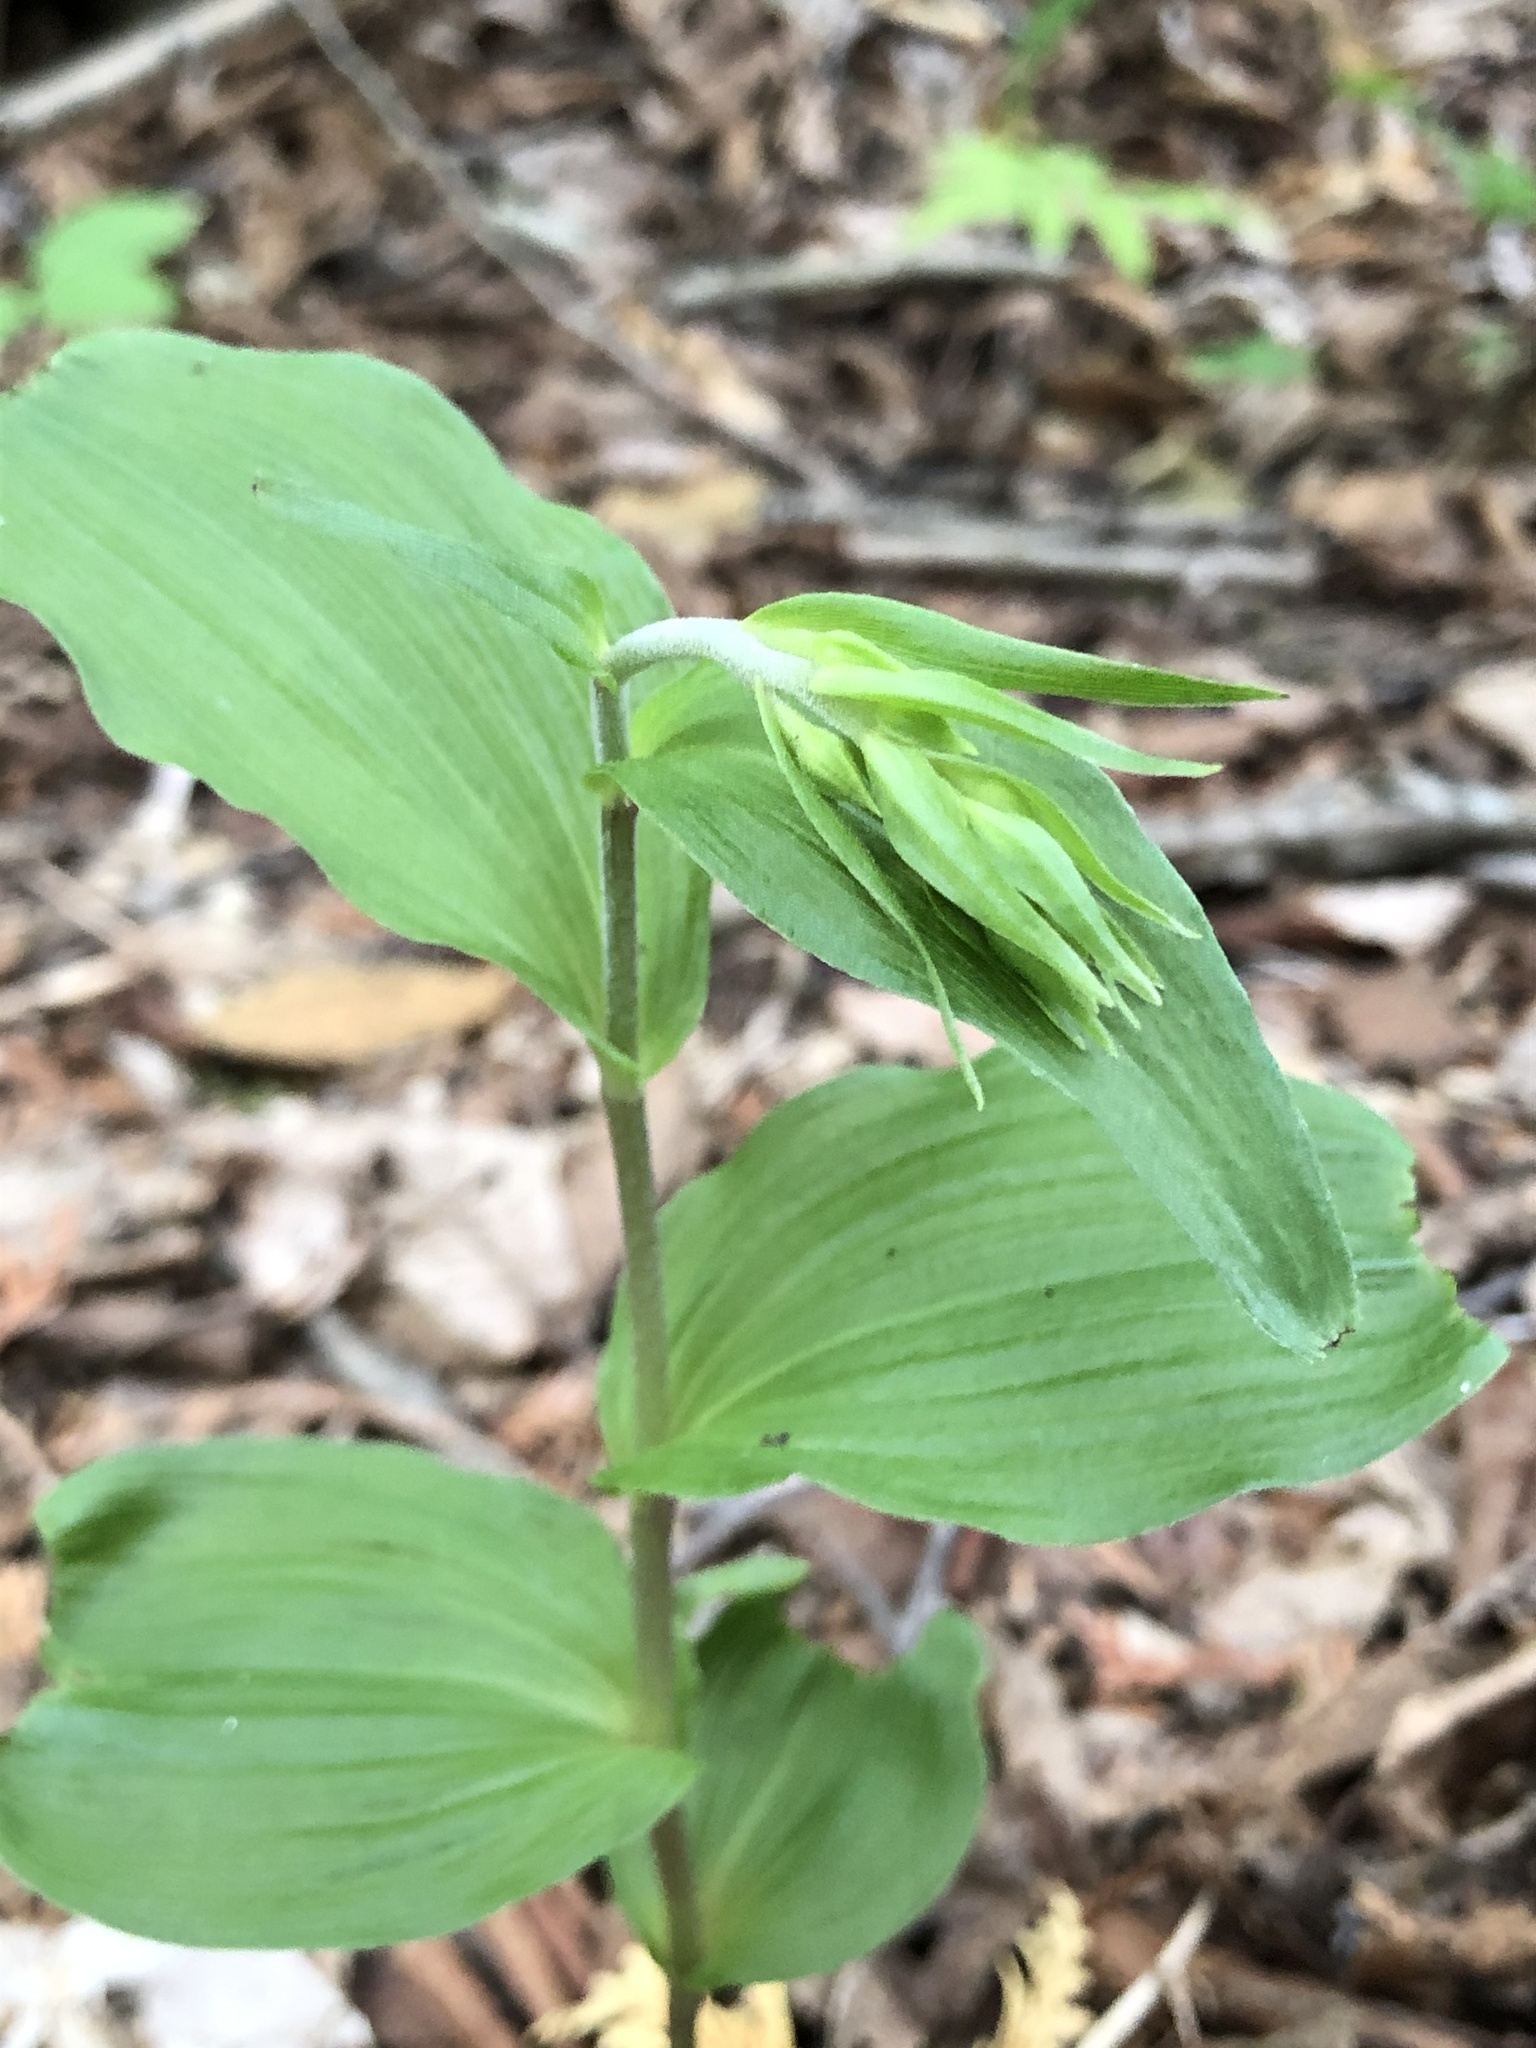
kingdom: Plantae
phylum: Tracheophyta
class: Liliopsida
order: Asparagales
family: Orchidaceae
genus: Epipactis
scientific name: Epipactis helleborine
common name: Broad-leaved helleborine
